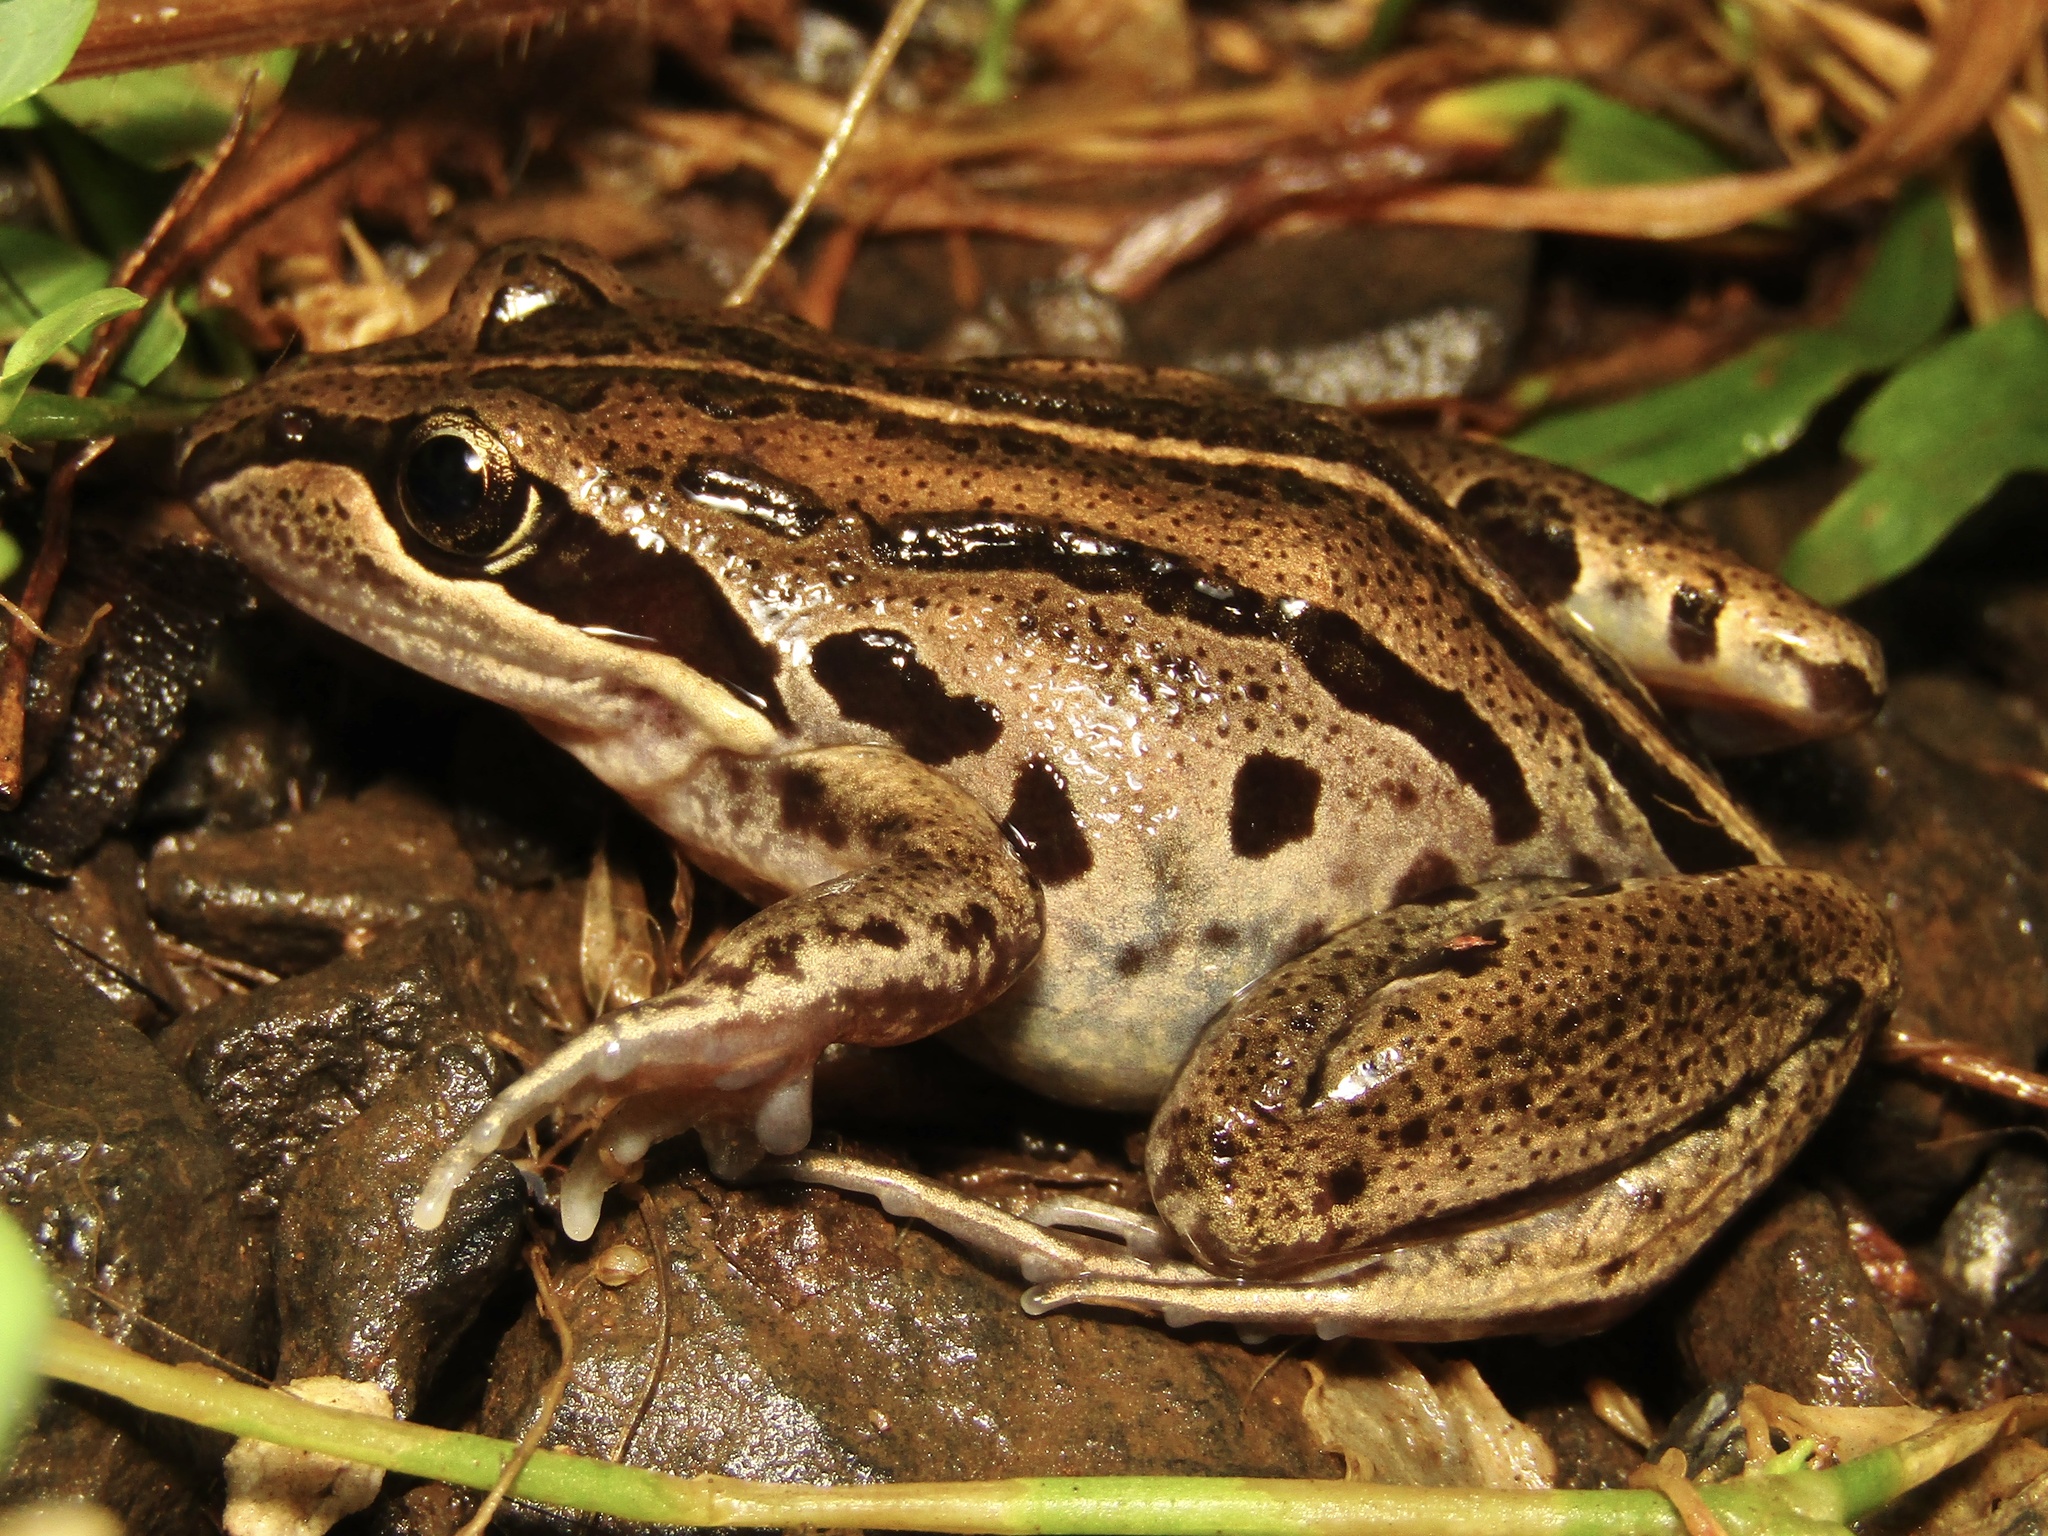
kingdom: Animalia
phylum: Chordata
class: Amphibia
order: Anura
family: Limnodynastidae
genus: Limnodynastes
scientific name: Limnodynastes peronii
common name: Brown frog
